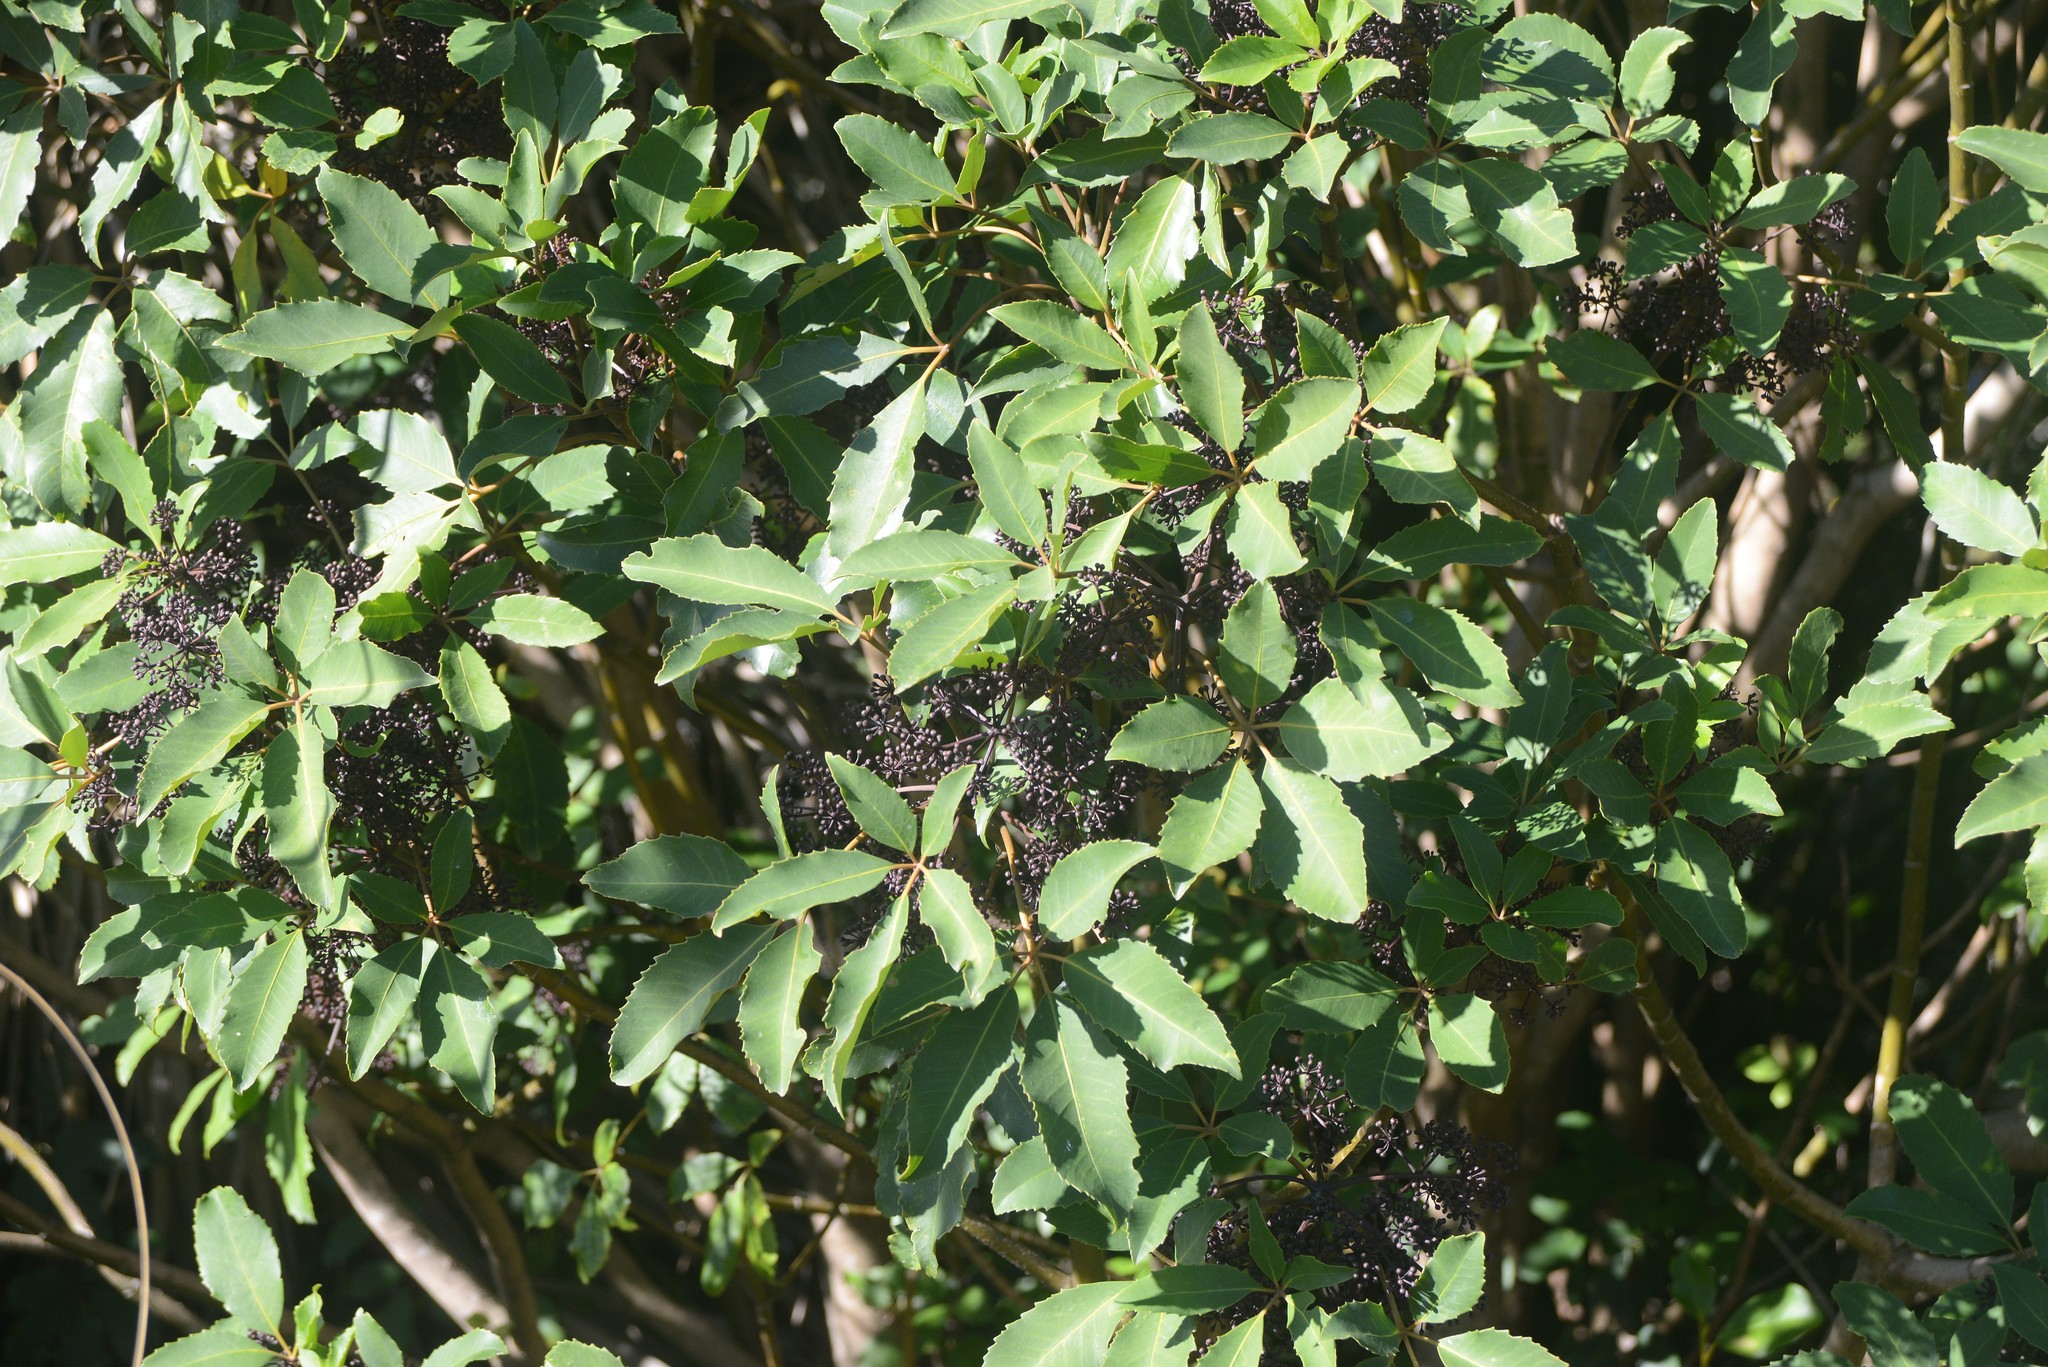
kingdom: Plantae
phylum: Tracheophyta
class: Magnoliopsida
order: Apiales
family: Araliaceae
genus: Neopanax
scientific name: Neopanax arboreus
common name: Five-fingers
